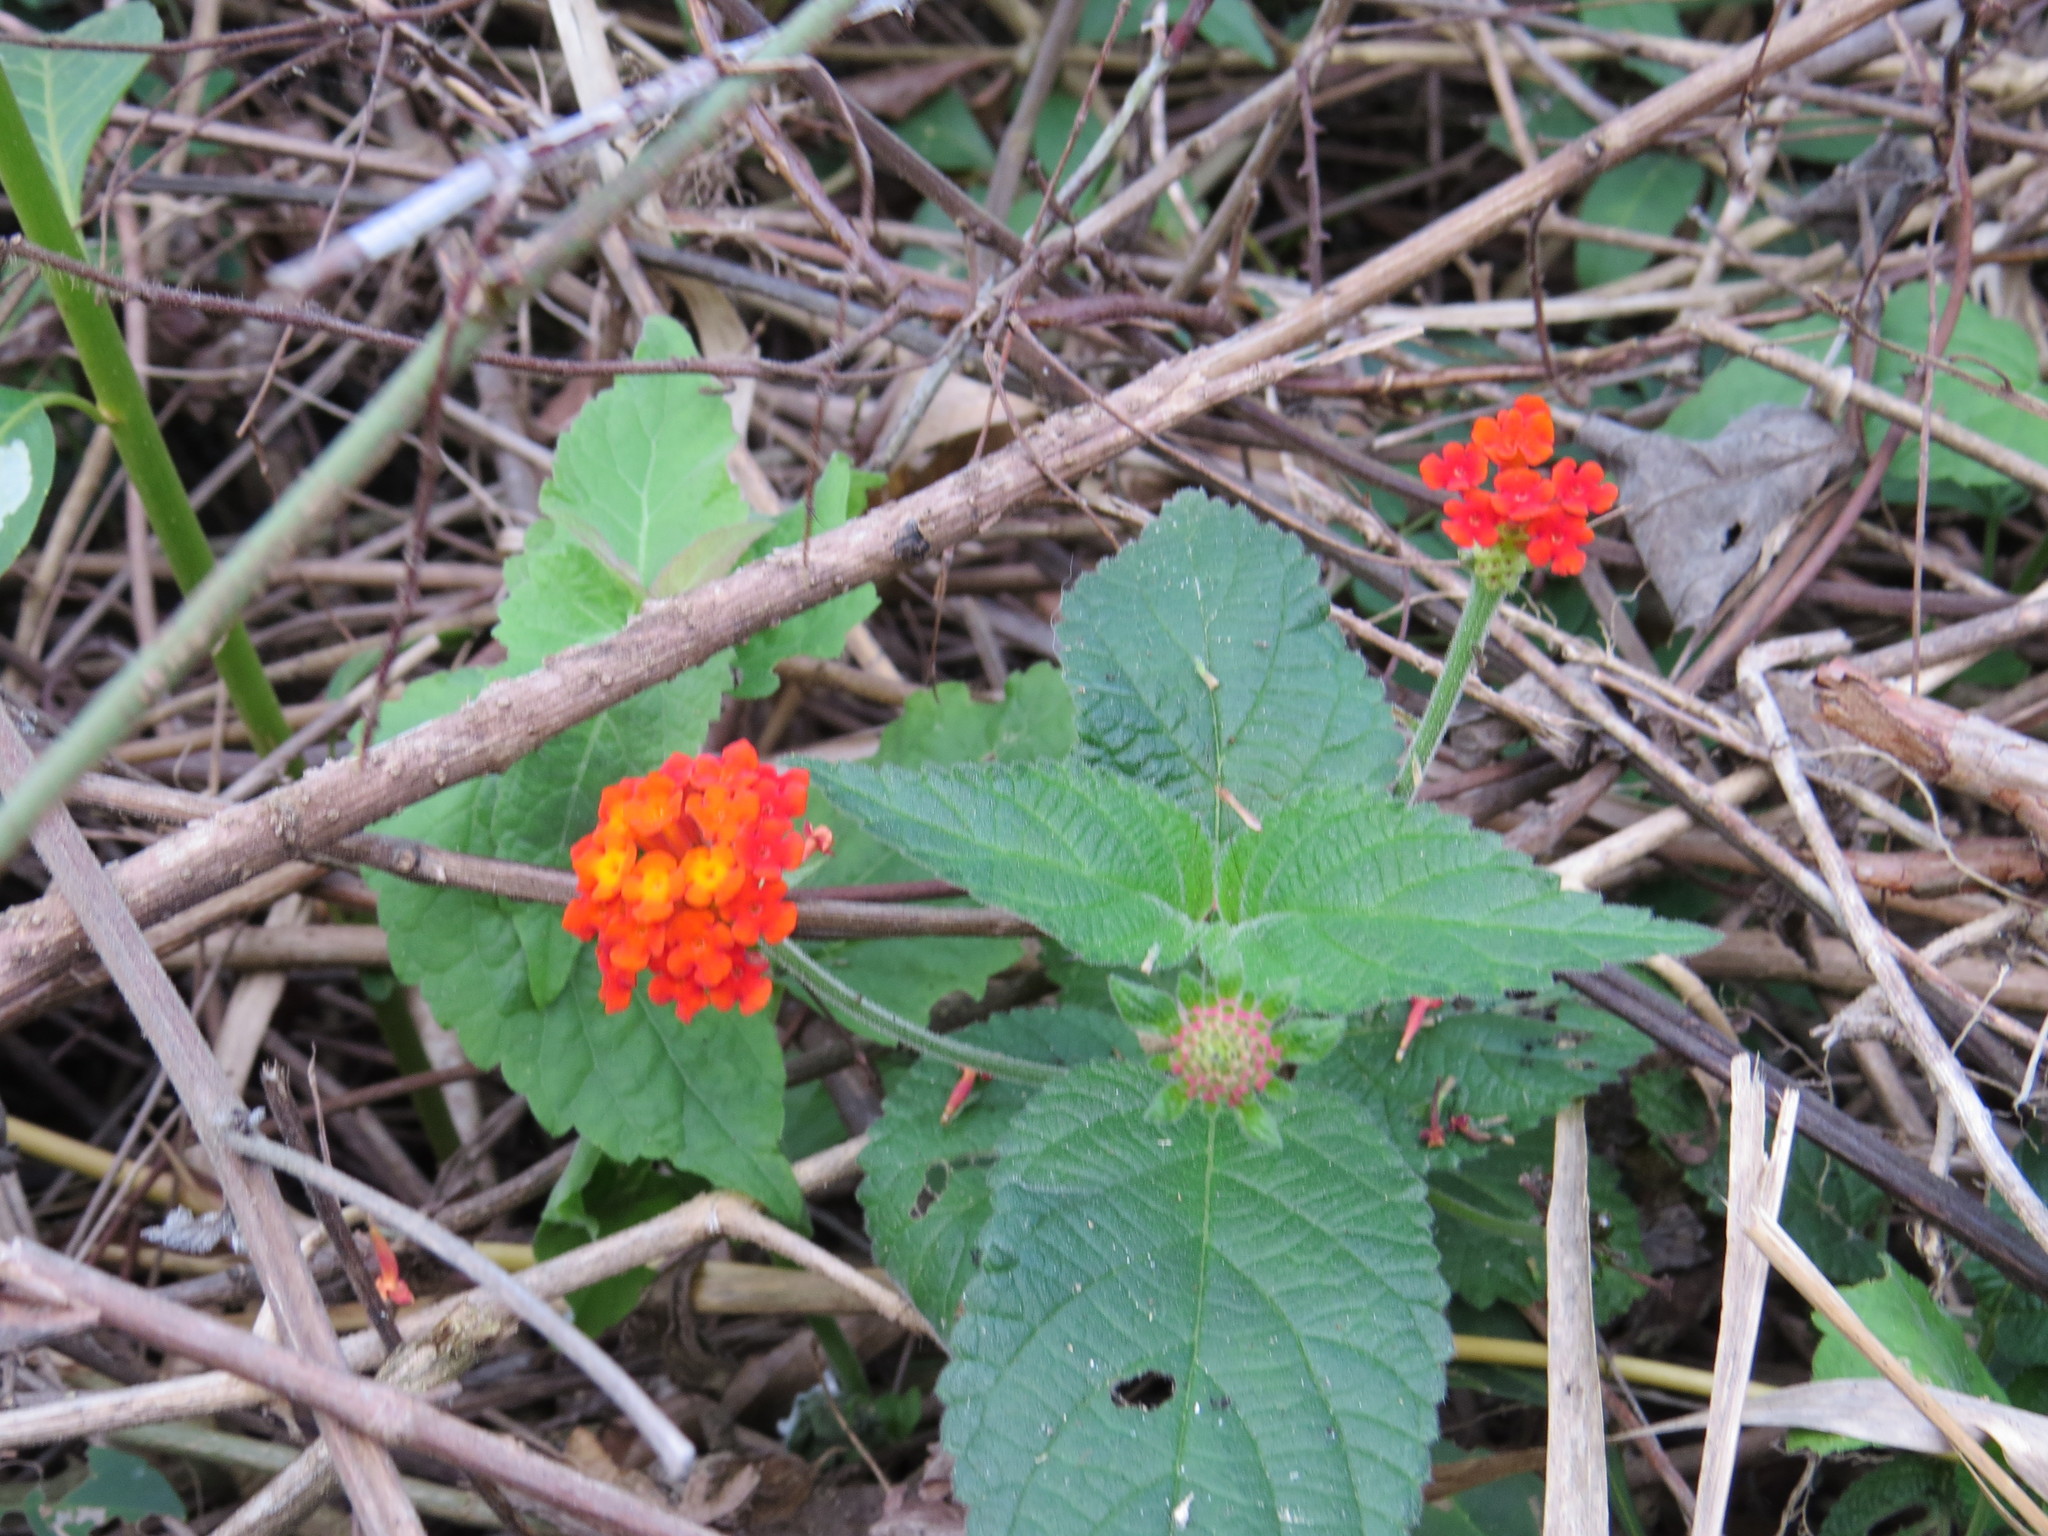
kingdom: Plantae
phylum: Tracheophyta
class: Magnoliopsida
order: Lamiales
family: Verbenaceae
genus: Lantana
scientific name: Lantana camara
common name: Lantana
